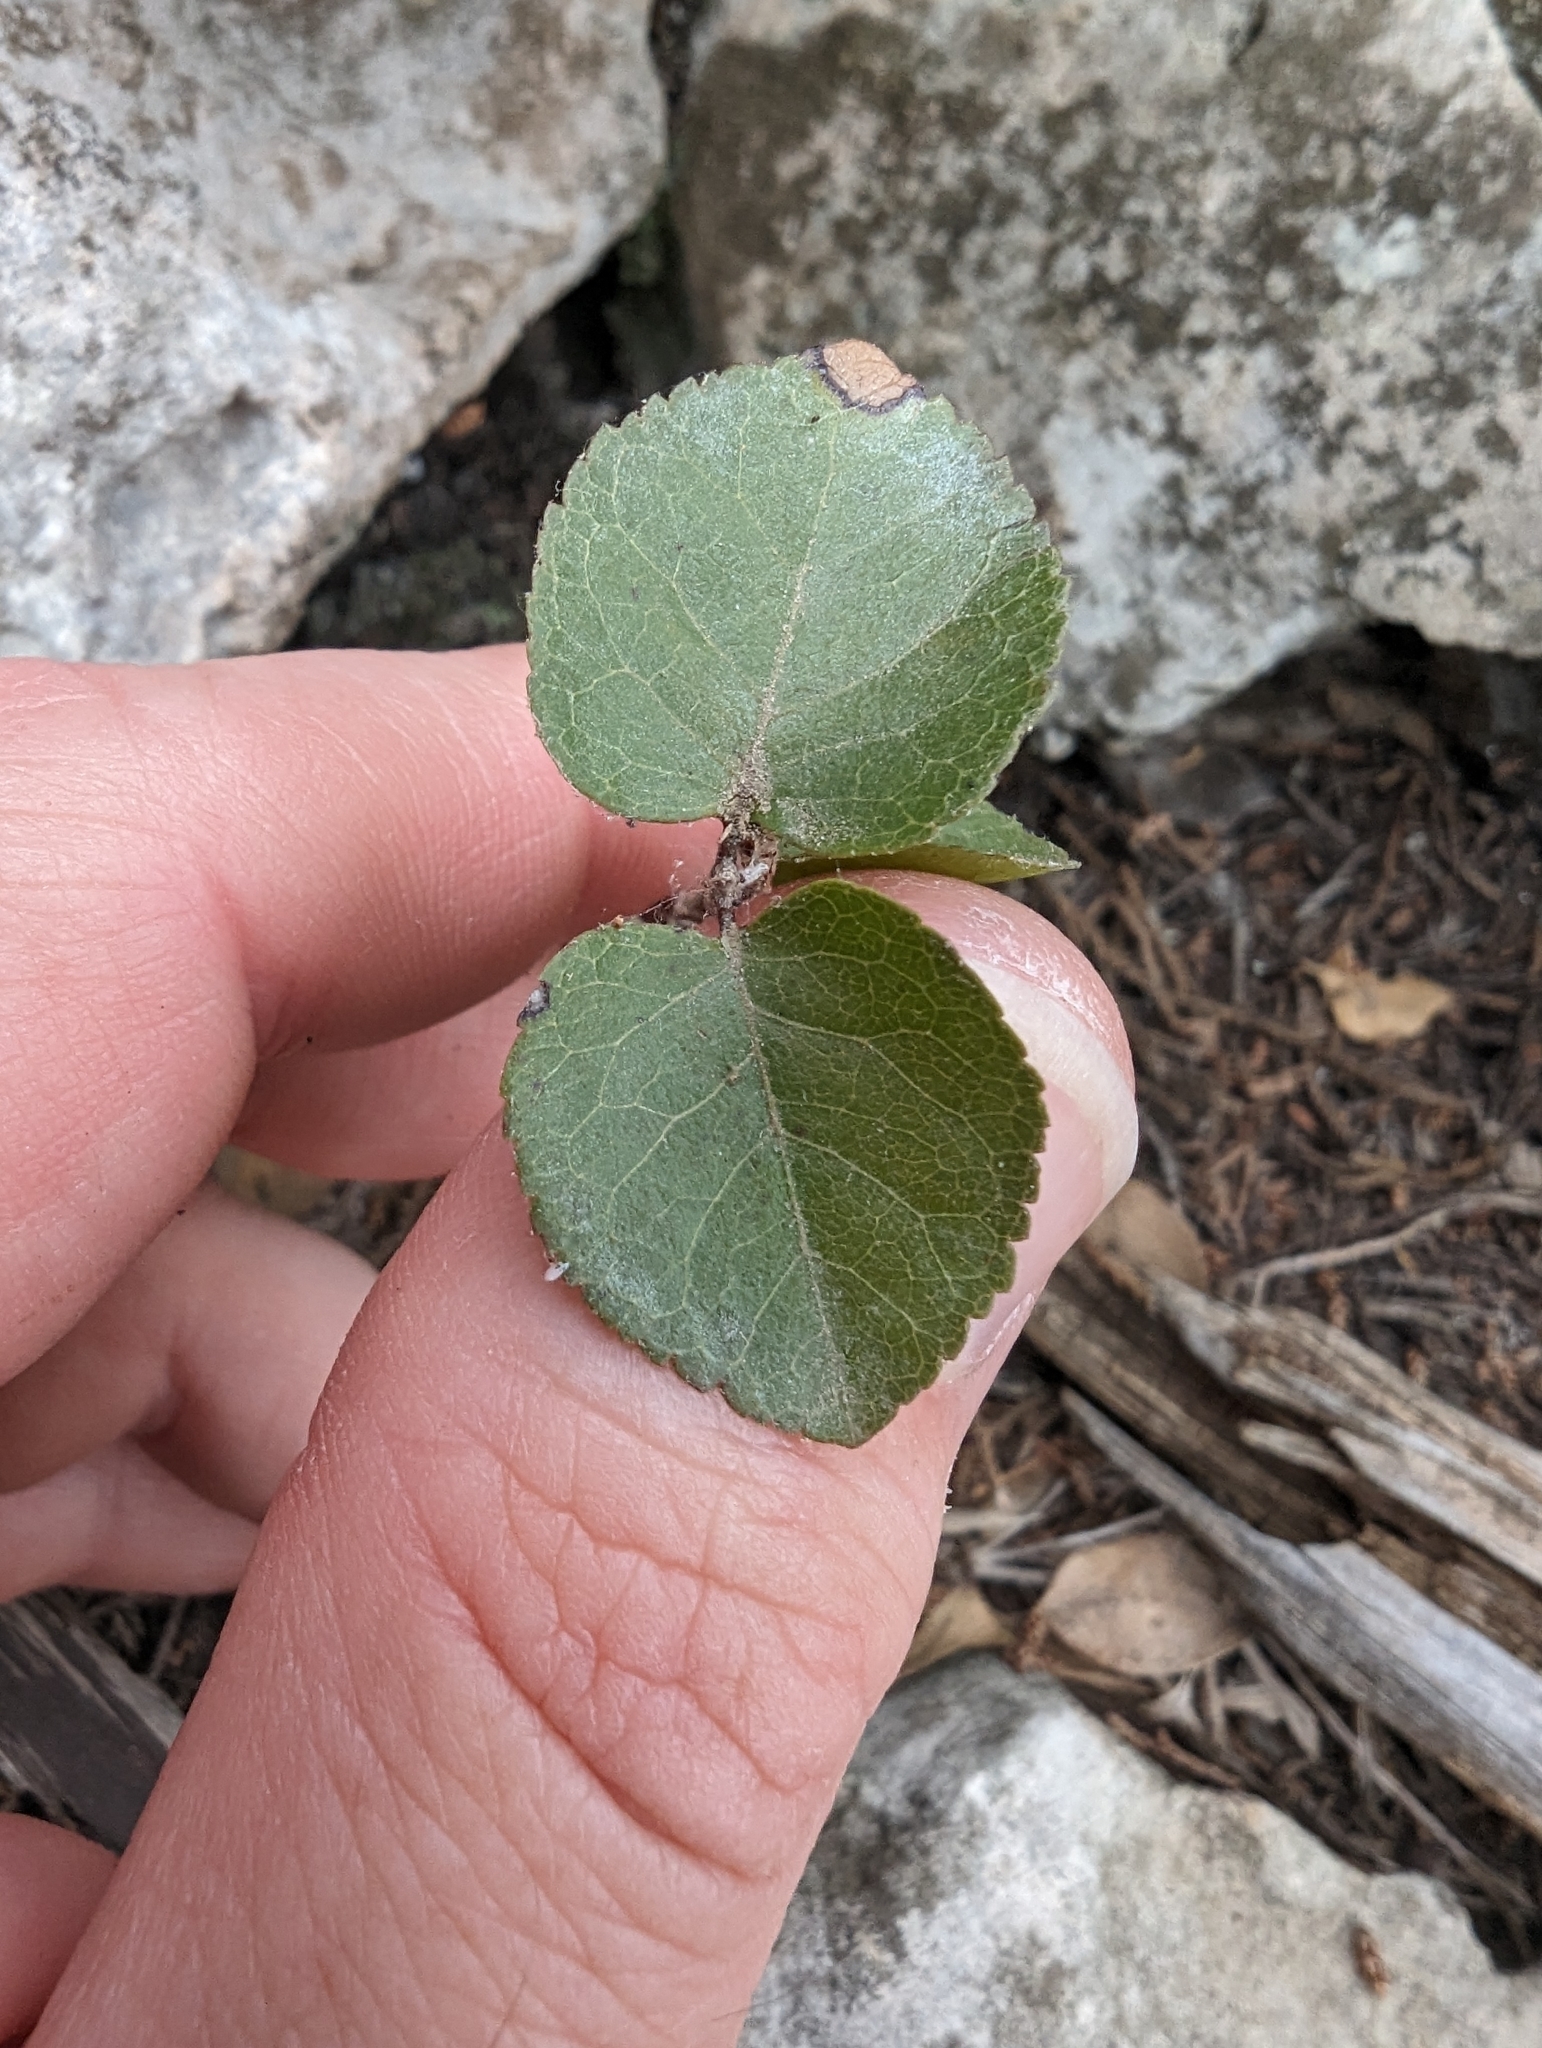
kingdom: Plantae
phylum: Tracheophyta
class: Magnoliopsida
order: Lamiales
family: Oleaceae
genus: Forestiera
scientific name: Forestiera reticulata
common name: Netleaf swamp-privet
